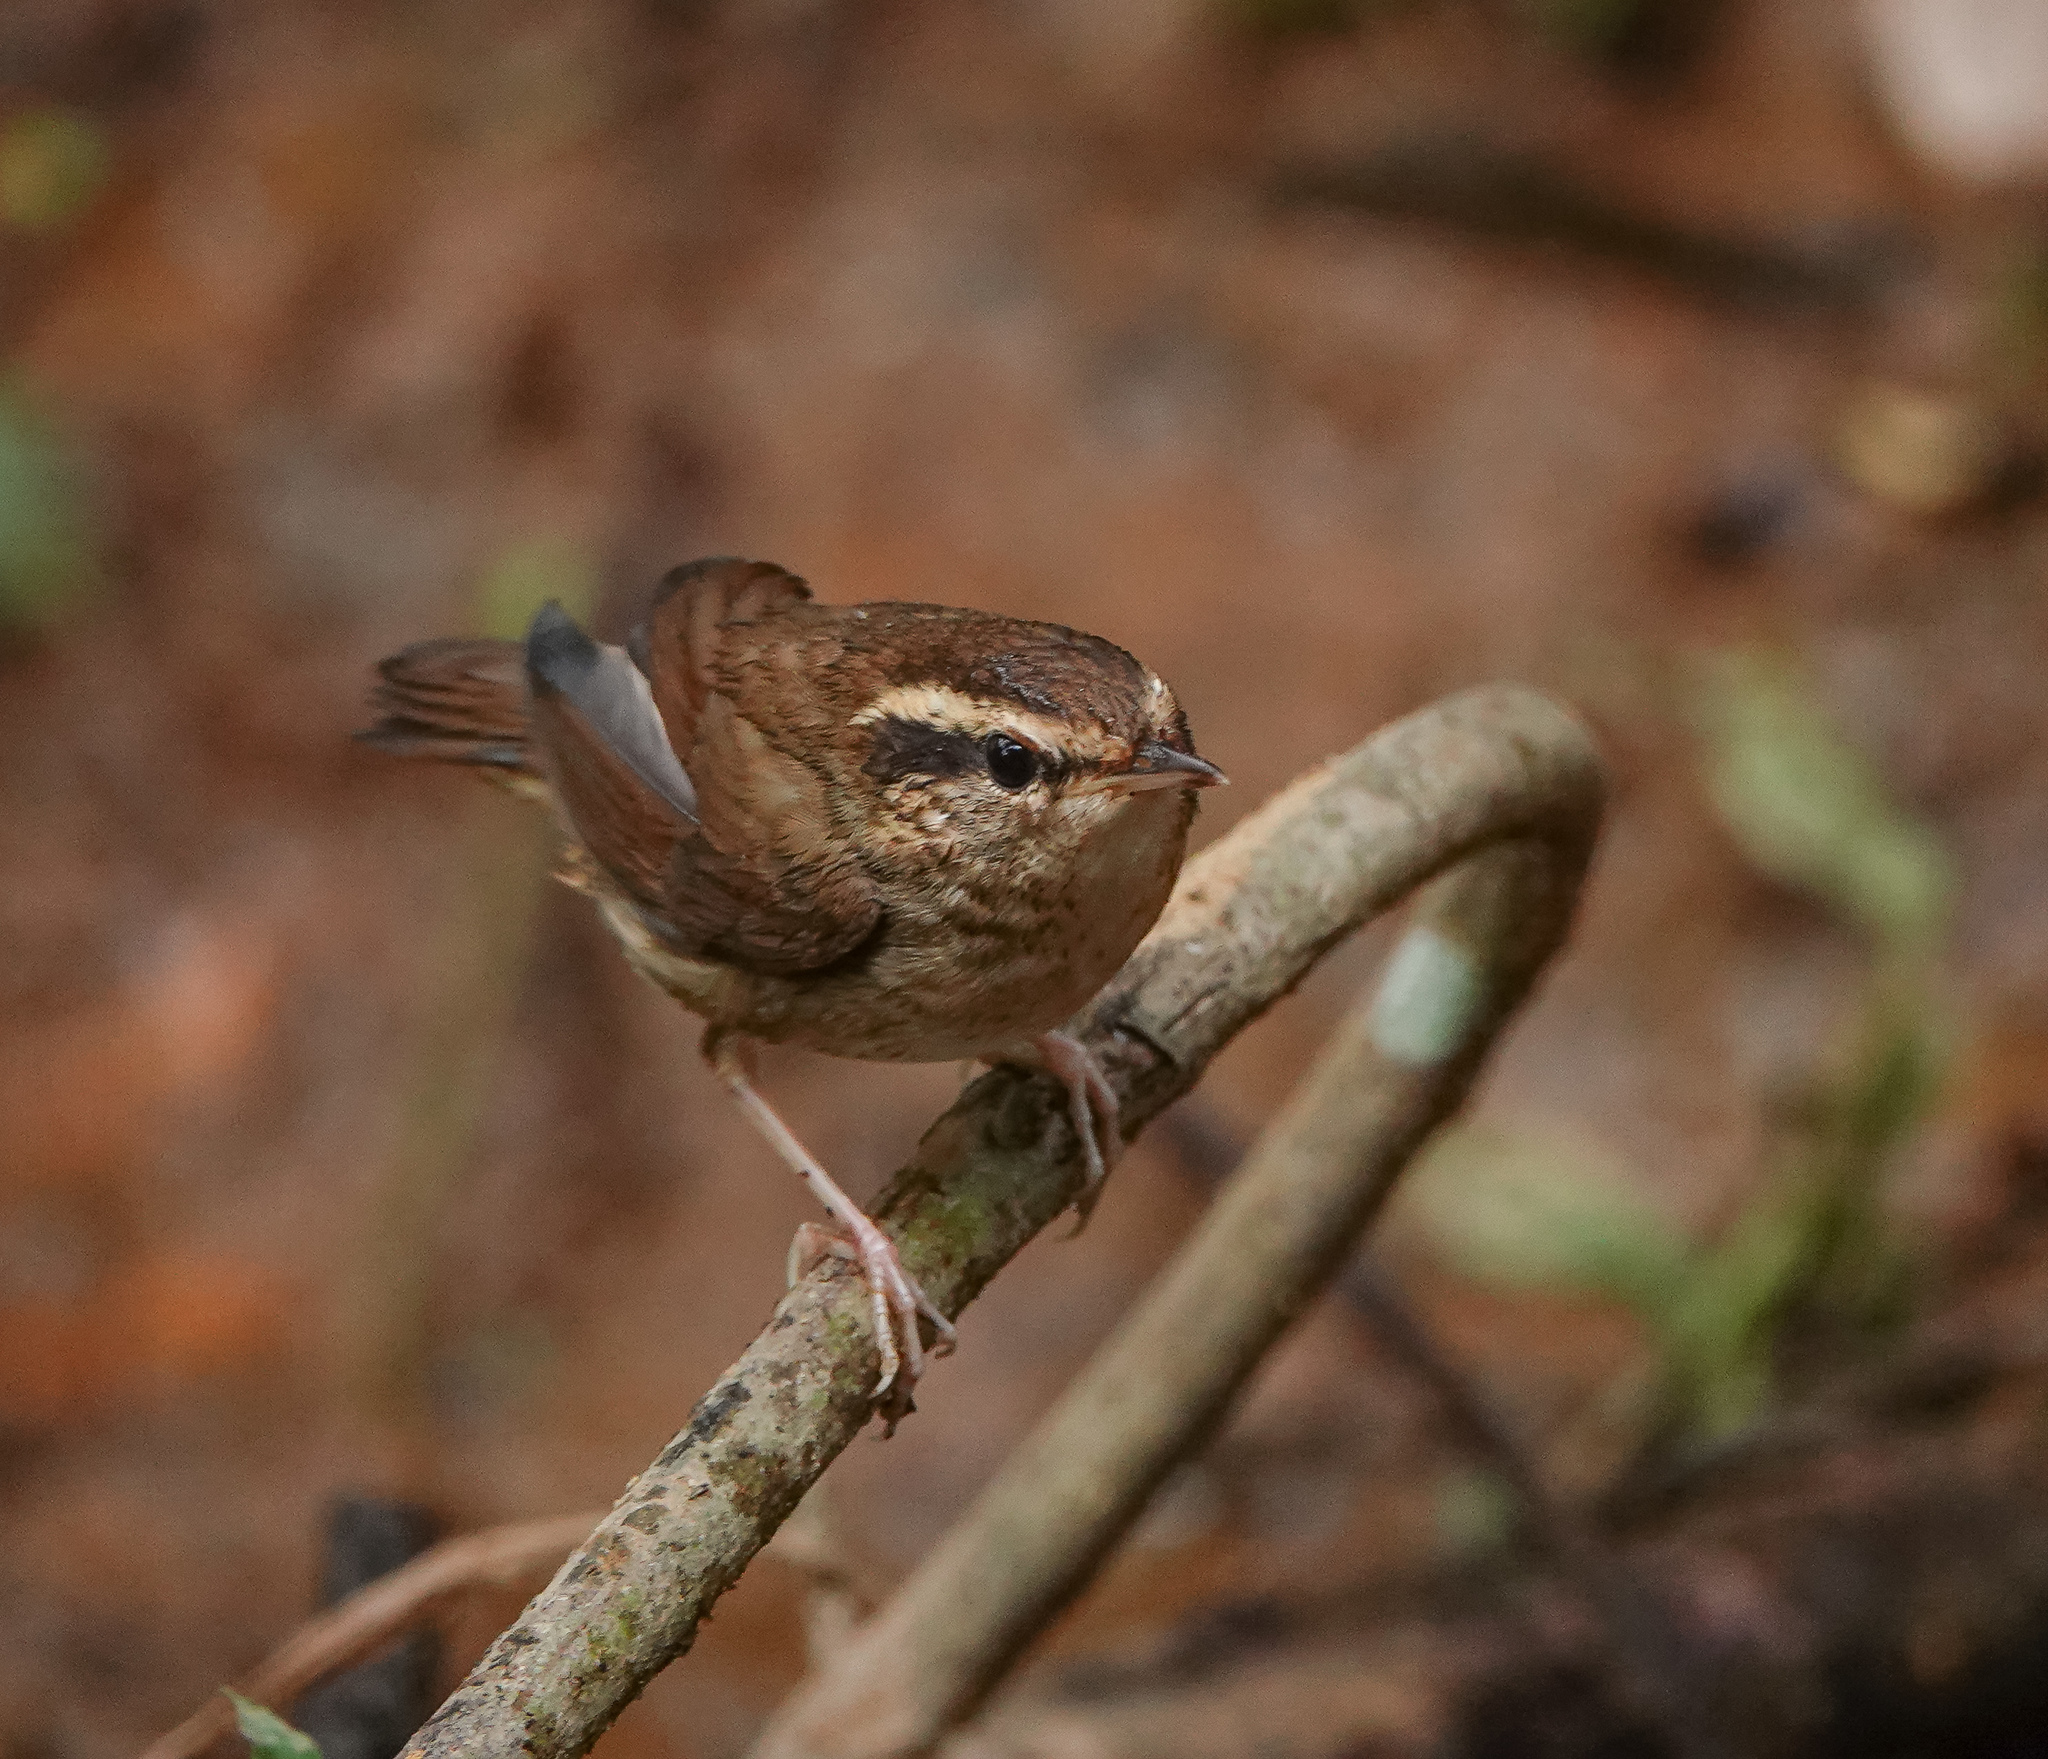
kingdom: Animalia
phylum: Chordata
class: Aves
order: Passeriformes
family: Cettiidae
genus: Urosphena
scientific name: Urosphena squameiceps
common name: Asian stubtail
